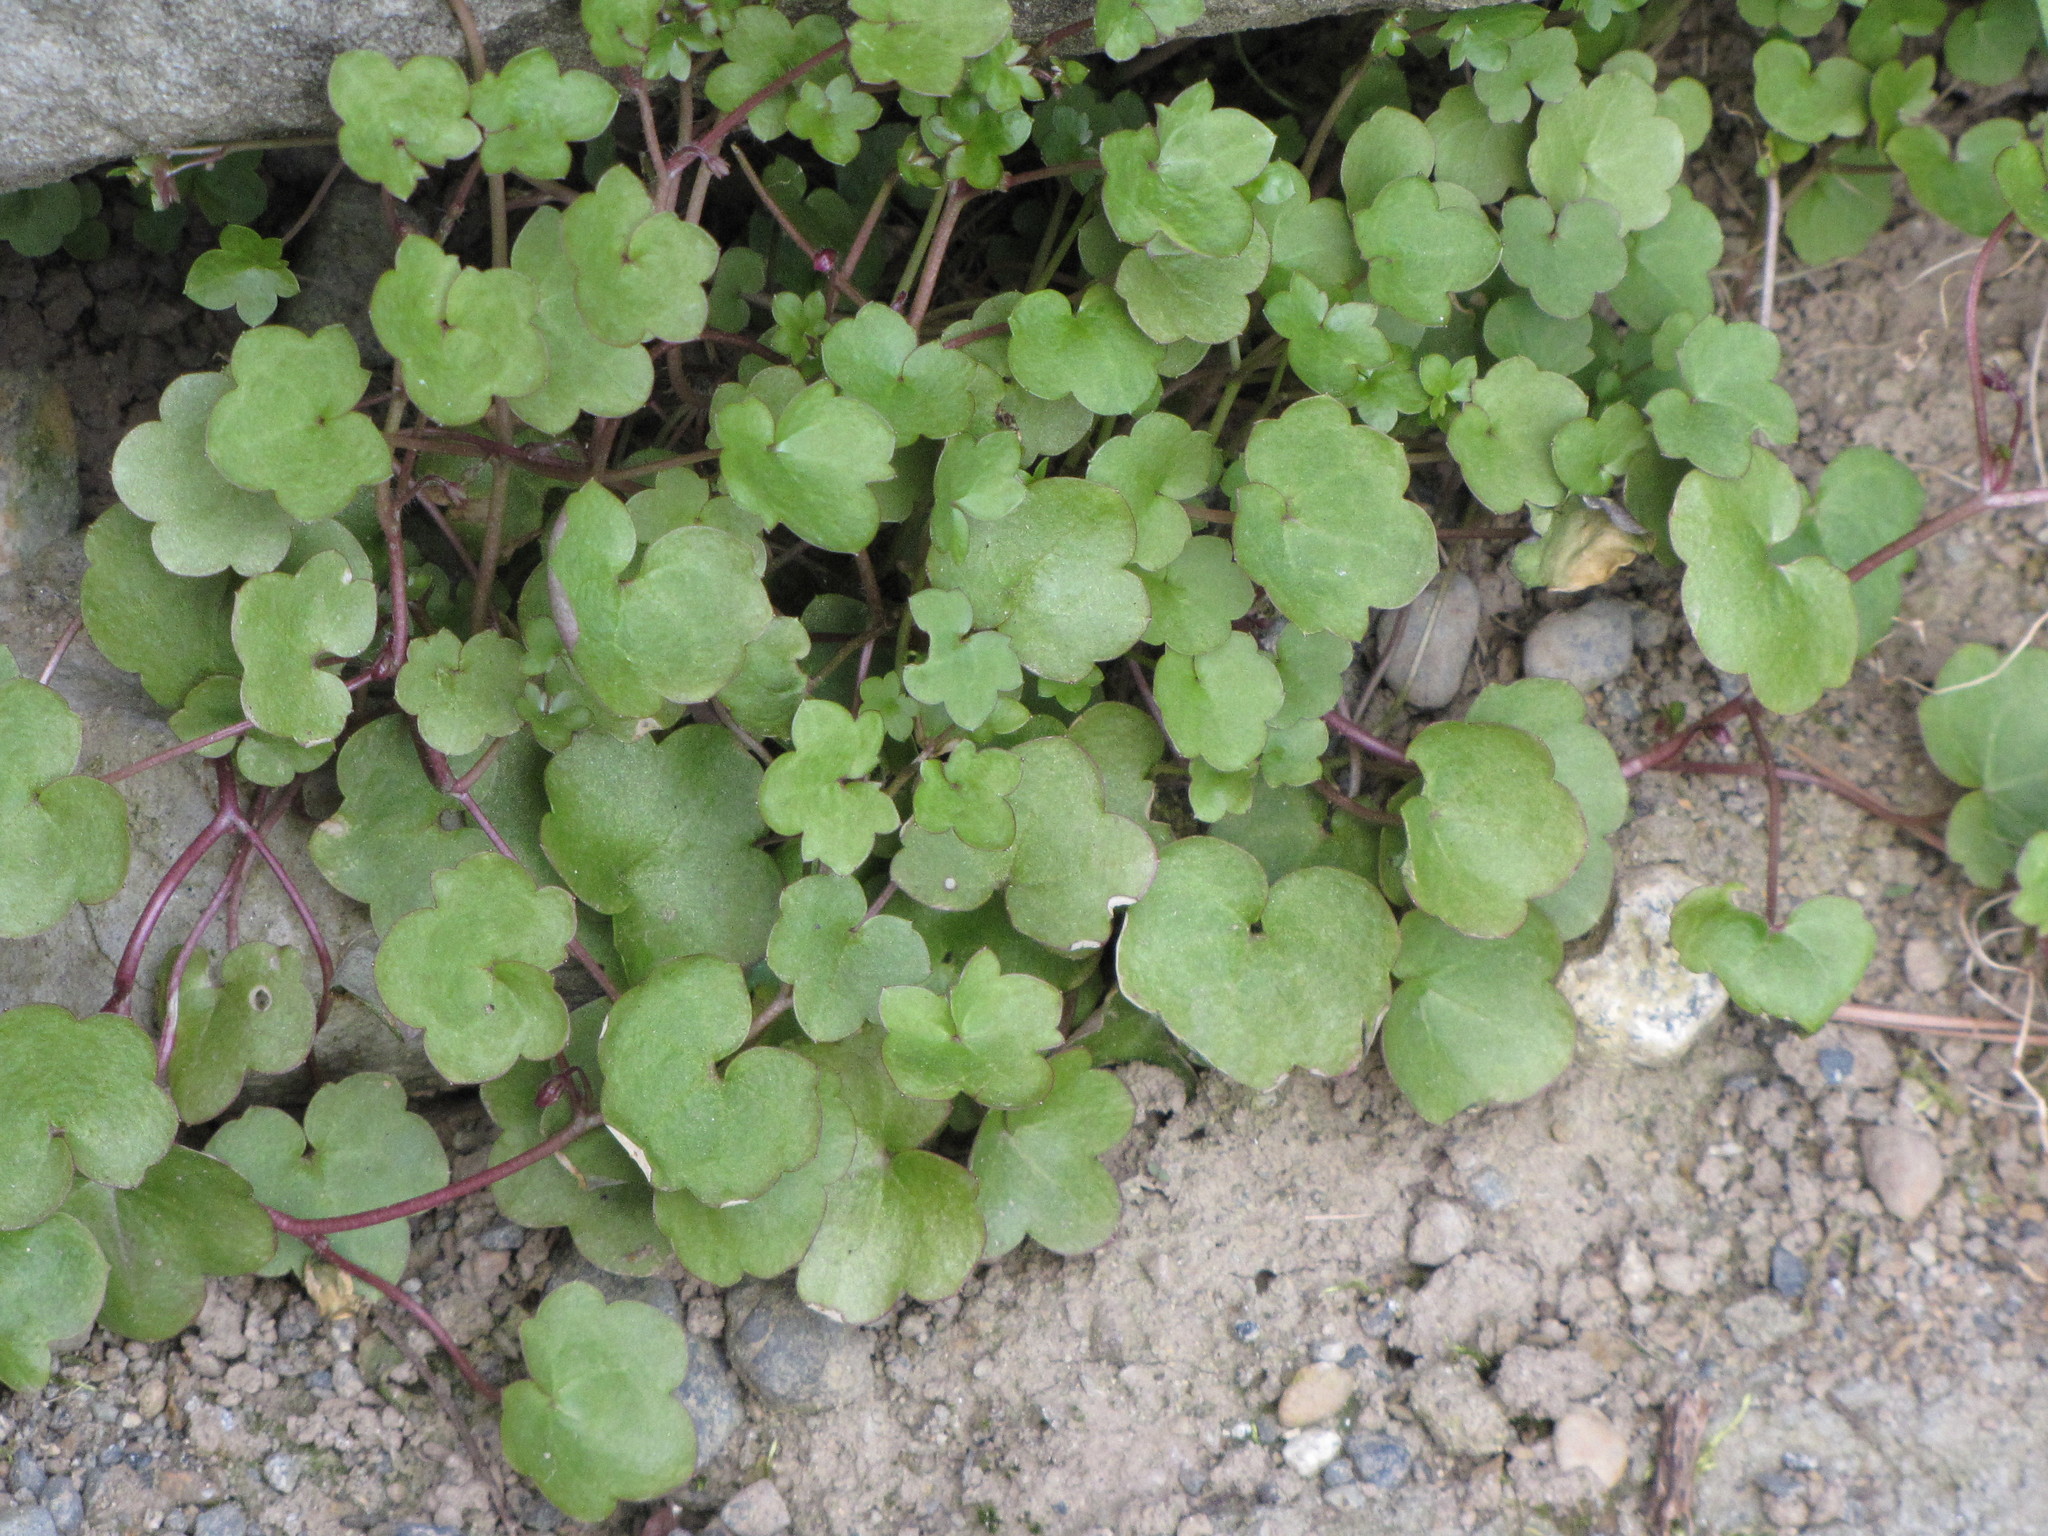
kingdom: Plantae
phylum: Tracheophyta
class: Magnoliopsida
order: Lamiales
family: Plantaginaceae
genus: Cymbalaria
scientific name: Cymbalaria muralis
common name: Ivy-leaved toadflax
